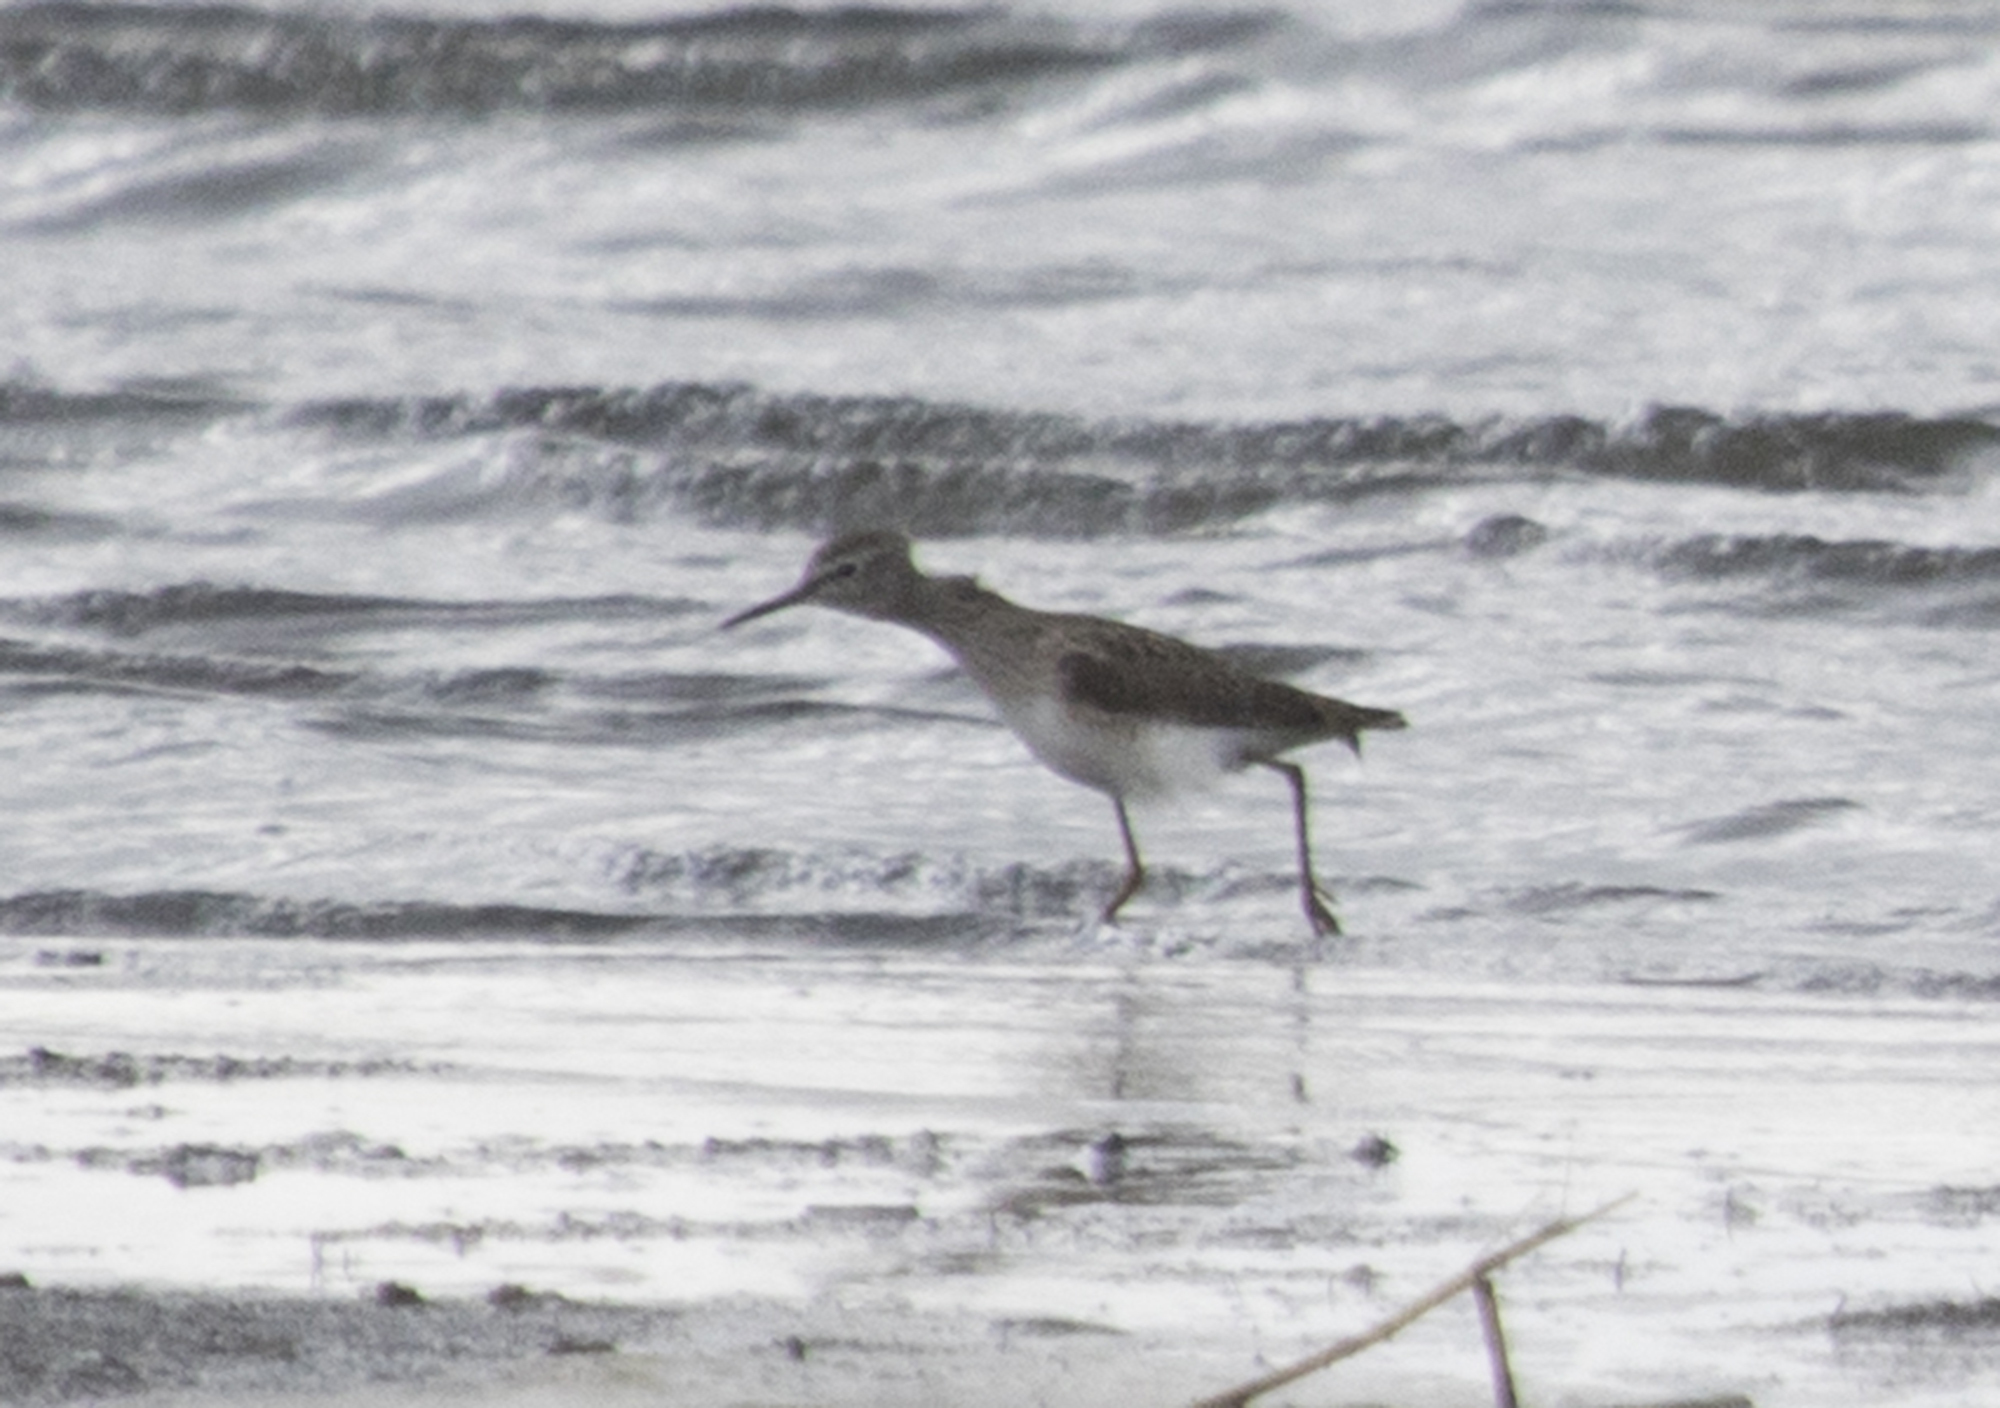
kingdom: Animalia
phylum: Chordata
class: Aves
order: Charadriiformes
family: Scolopacidae
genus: Tringa
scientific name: Tringa glareola
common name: Wood sandpiper
